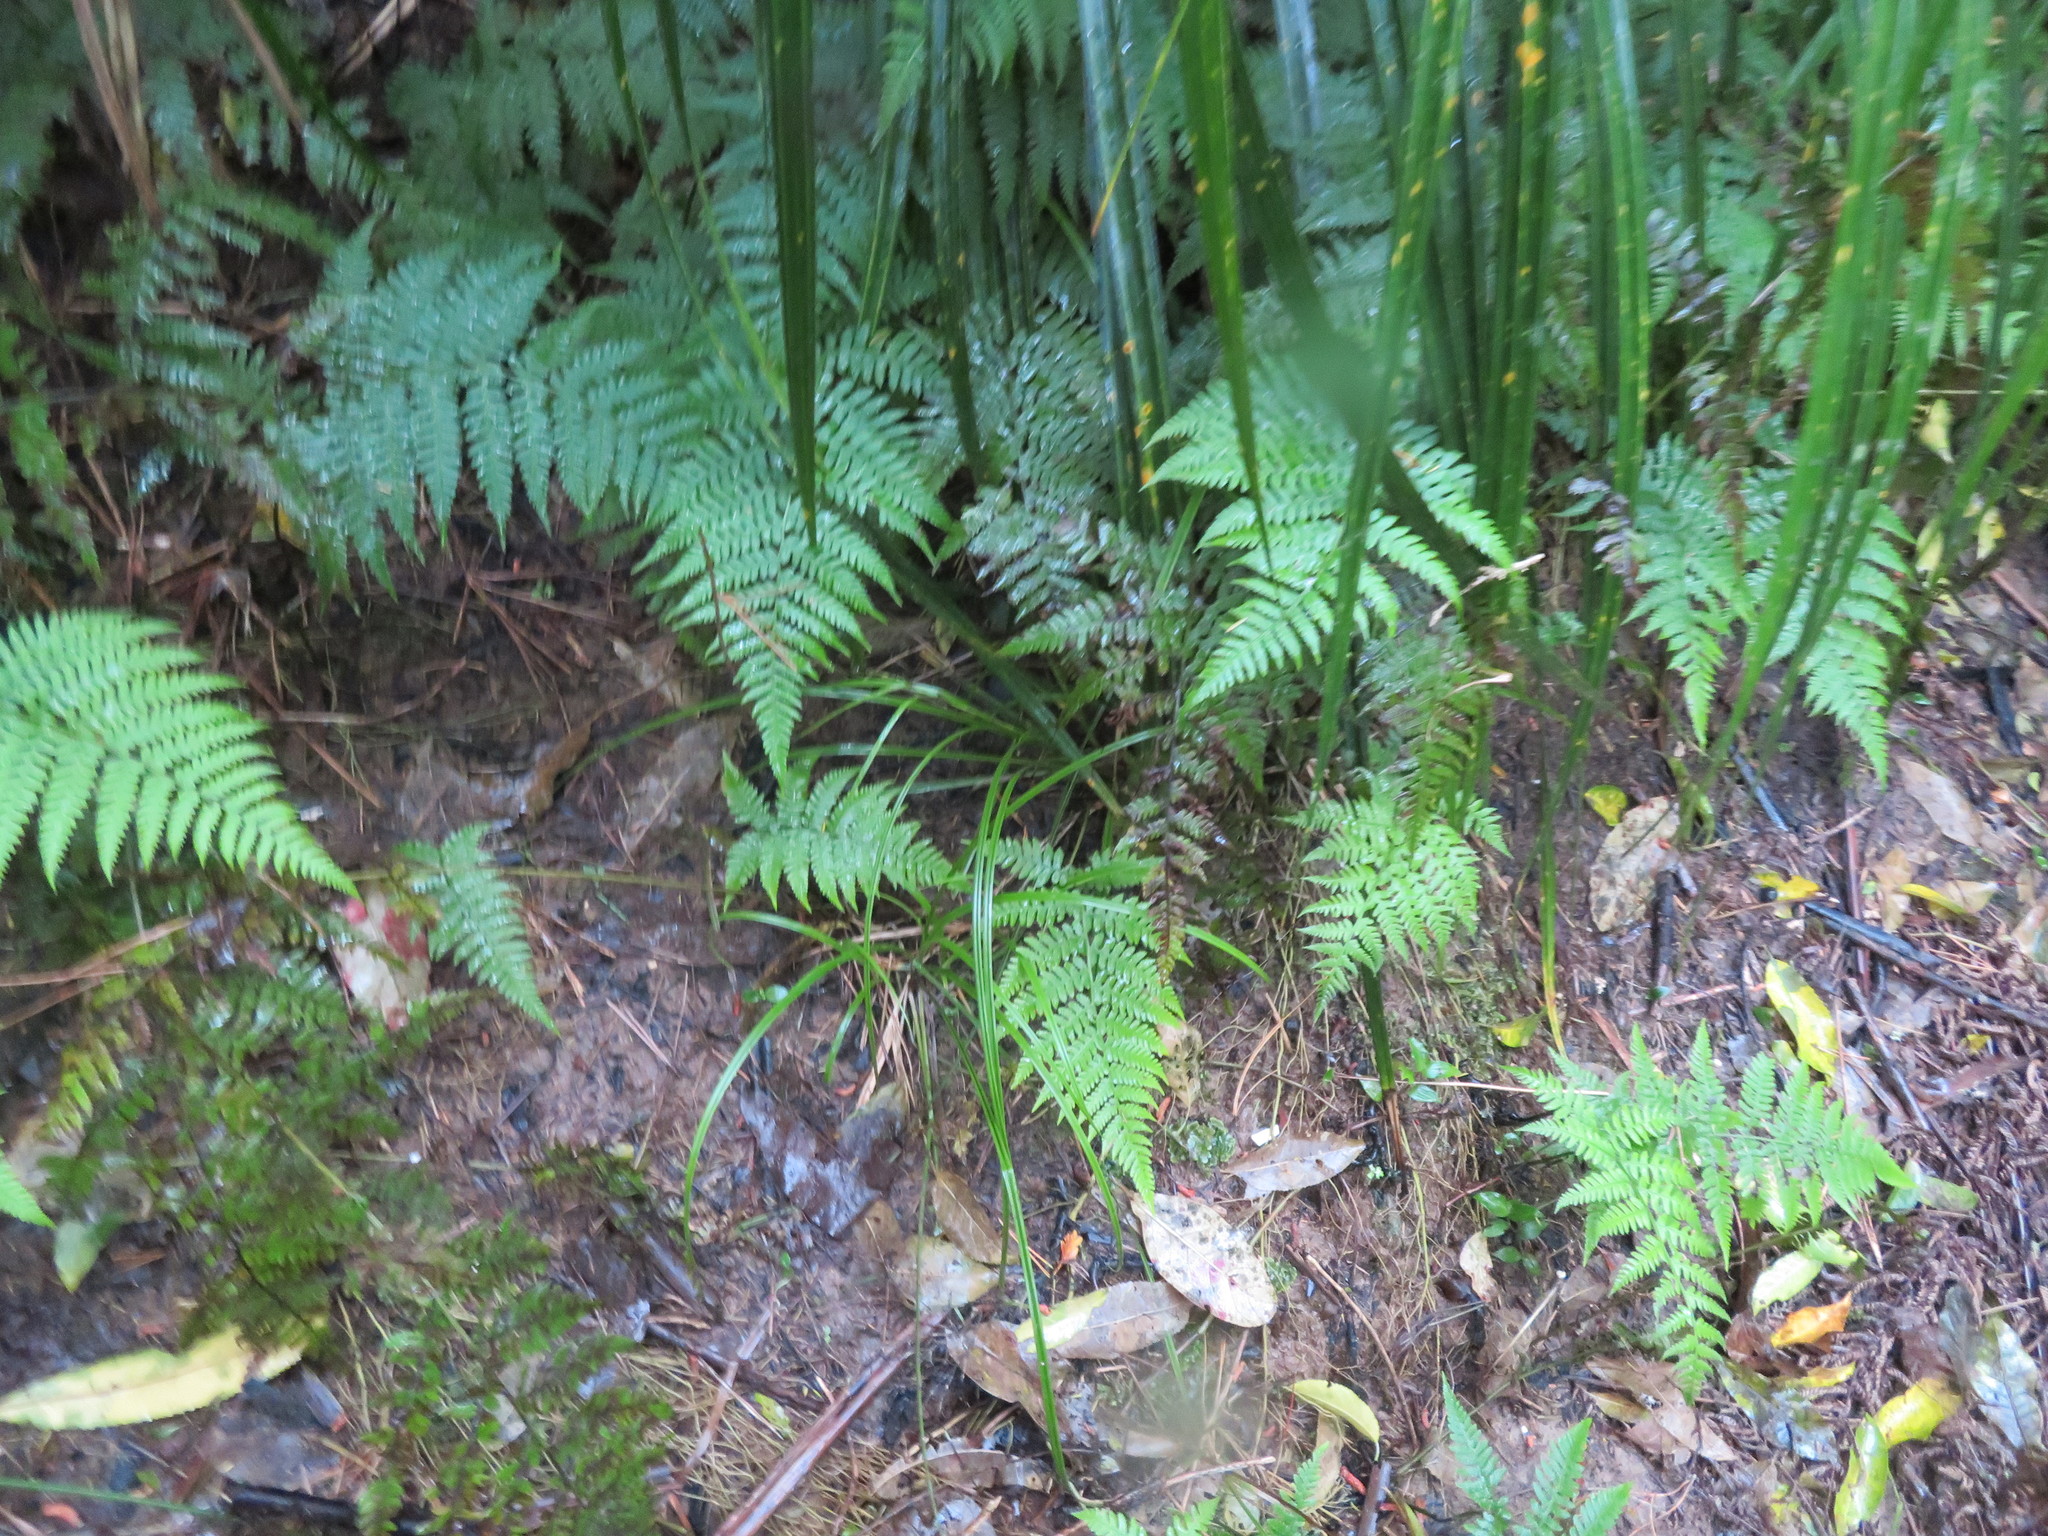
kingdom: Plantae
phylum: Tracheophyta
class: Polypodiopsida
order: Polypodiales
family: Athyriaceae
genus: Diplazium
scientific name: Diplazium congruum
